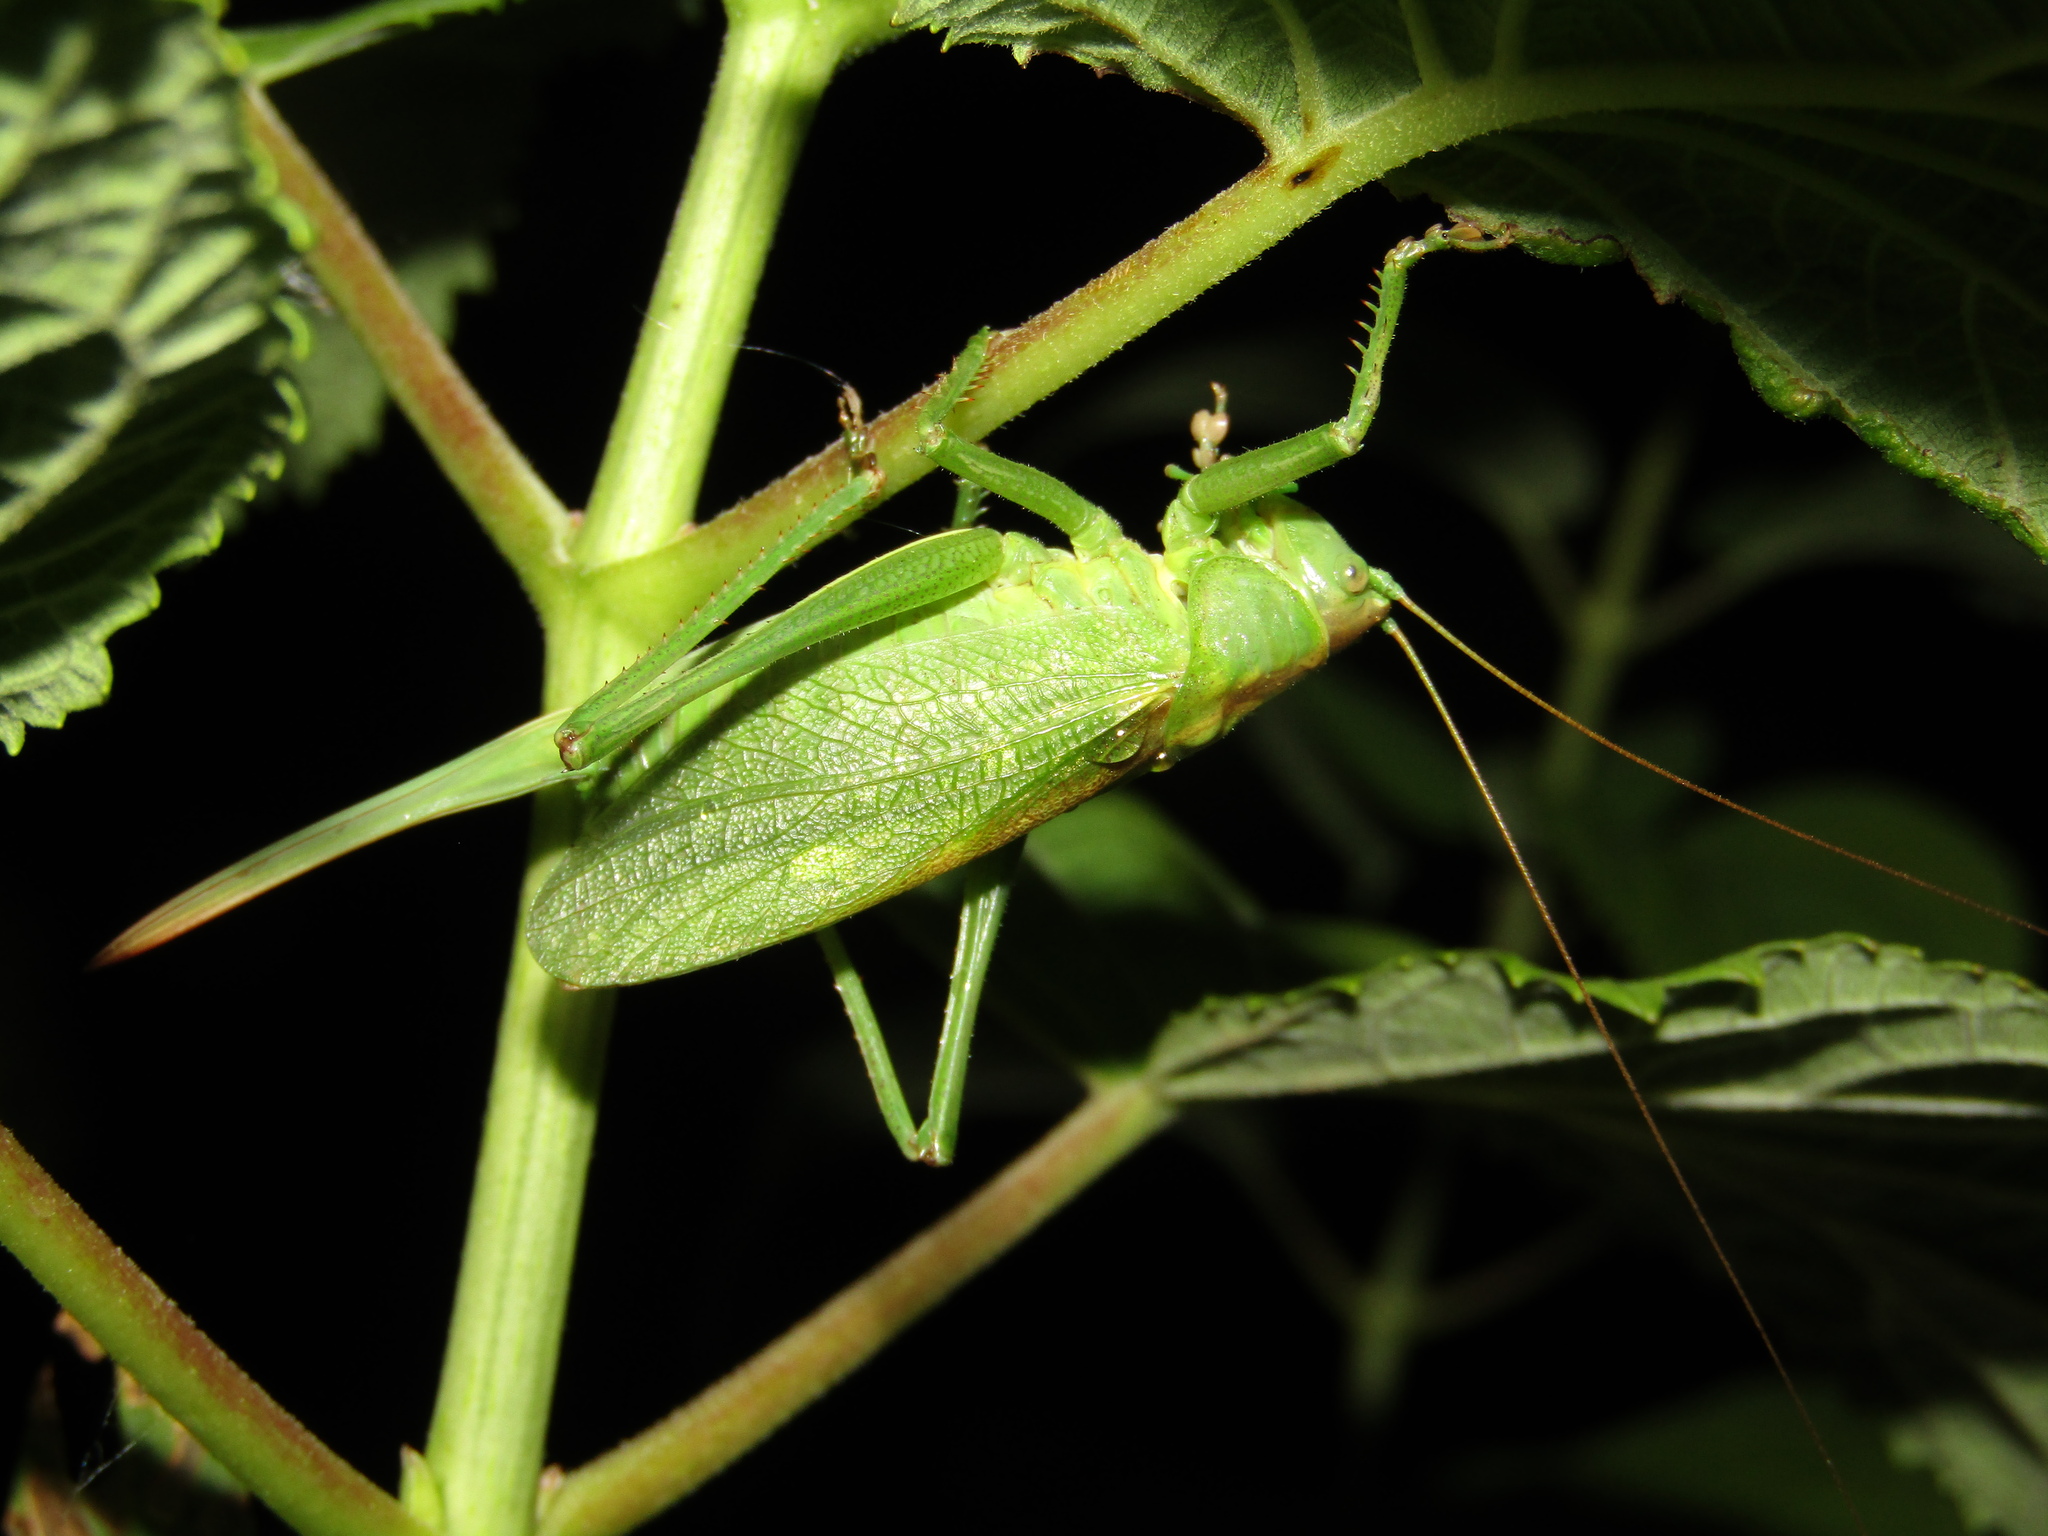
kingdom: Animalia
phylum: Arthropoda
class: Insecta
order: Orthoptera
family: Tettigoniidae
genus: Tettigonia
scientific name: Tettigonia cantans
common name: Upland green bush-cricket
